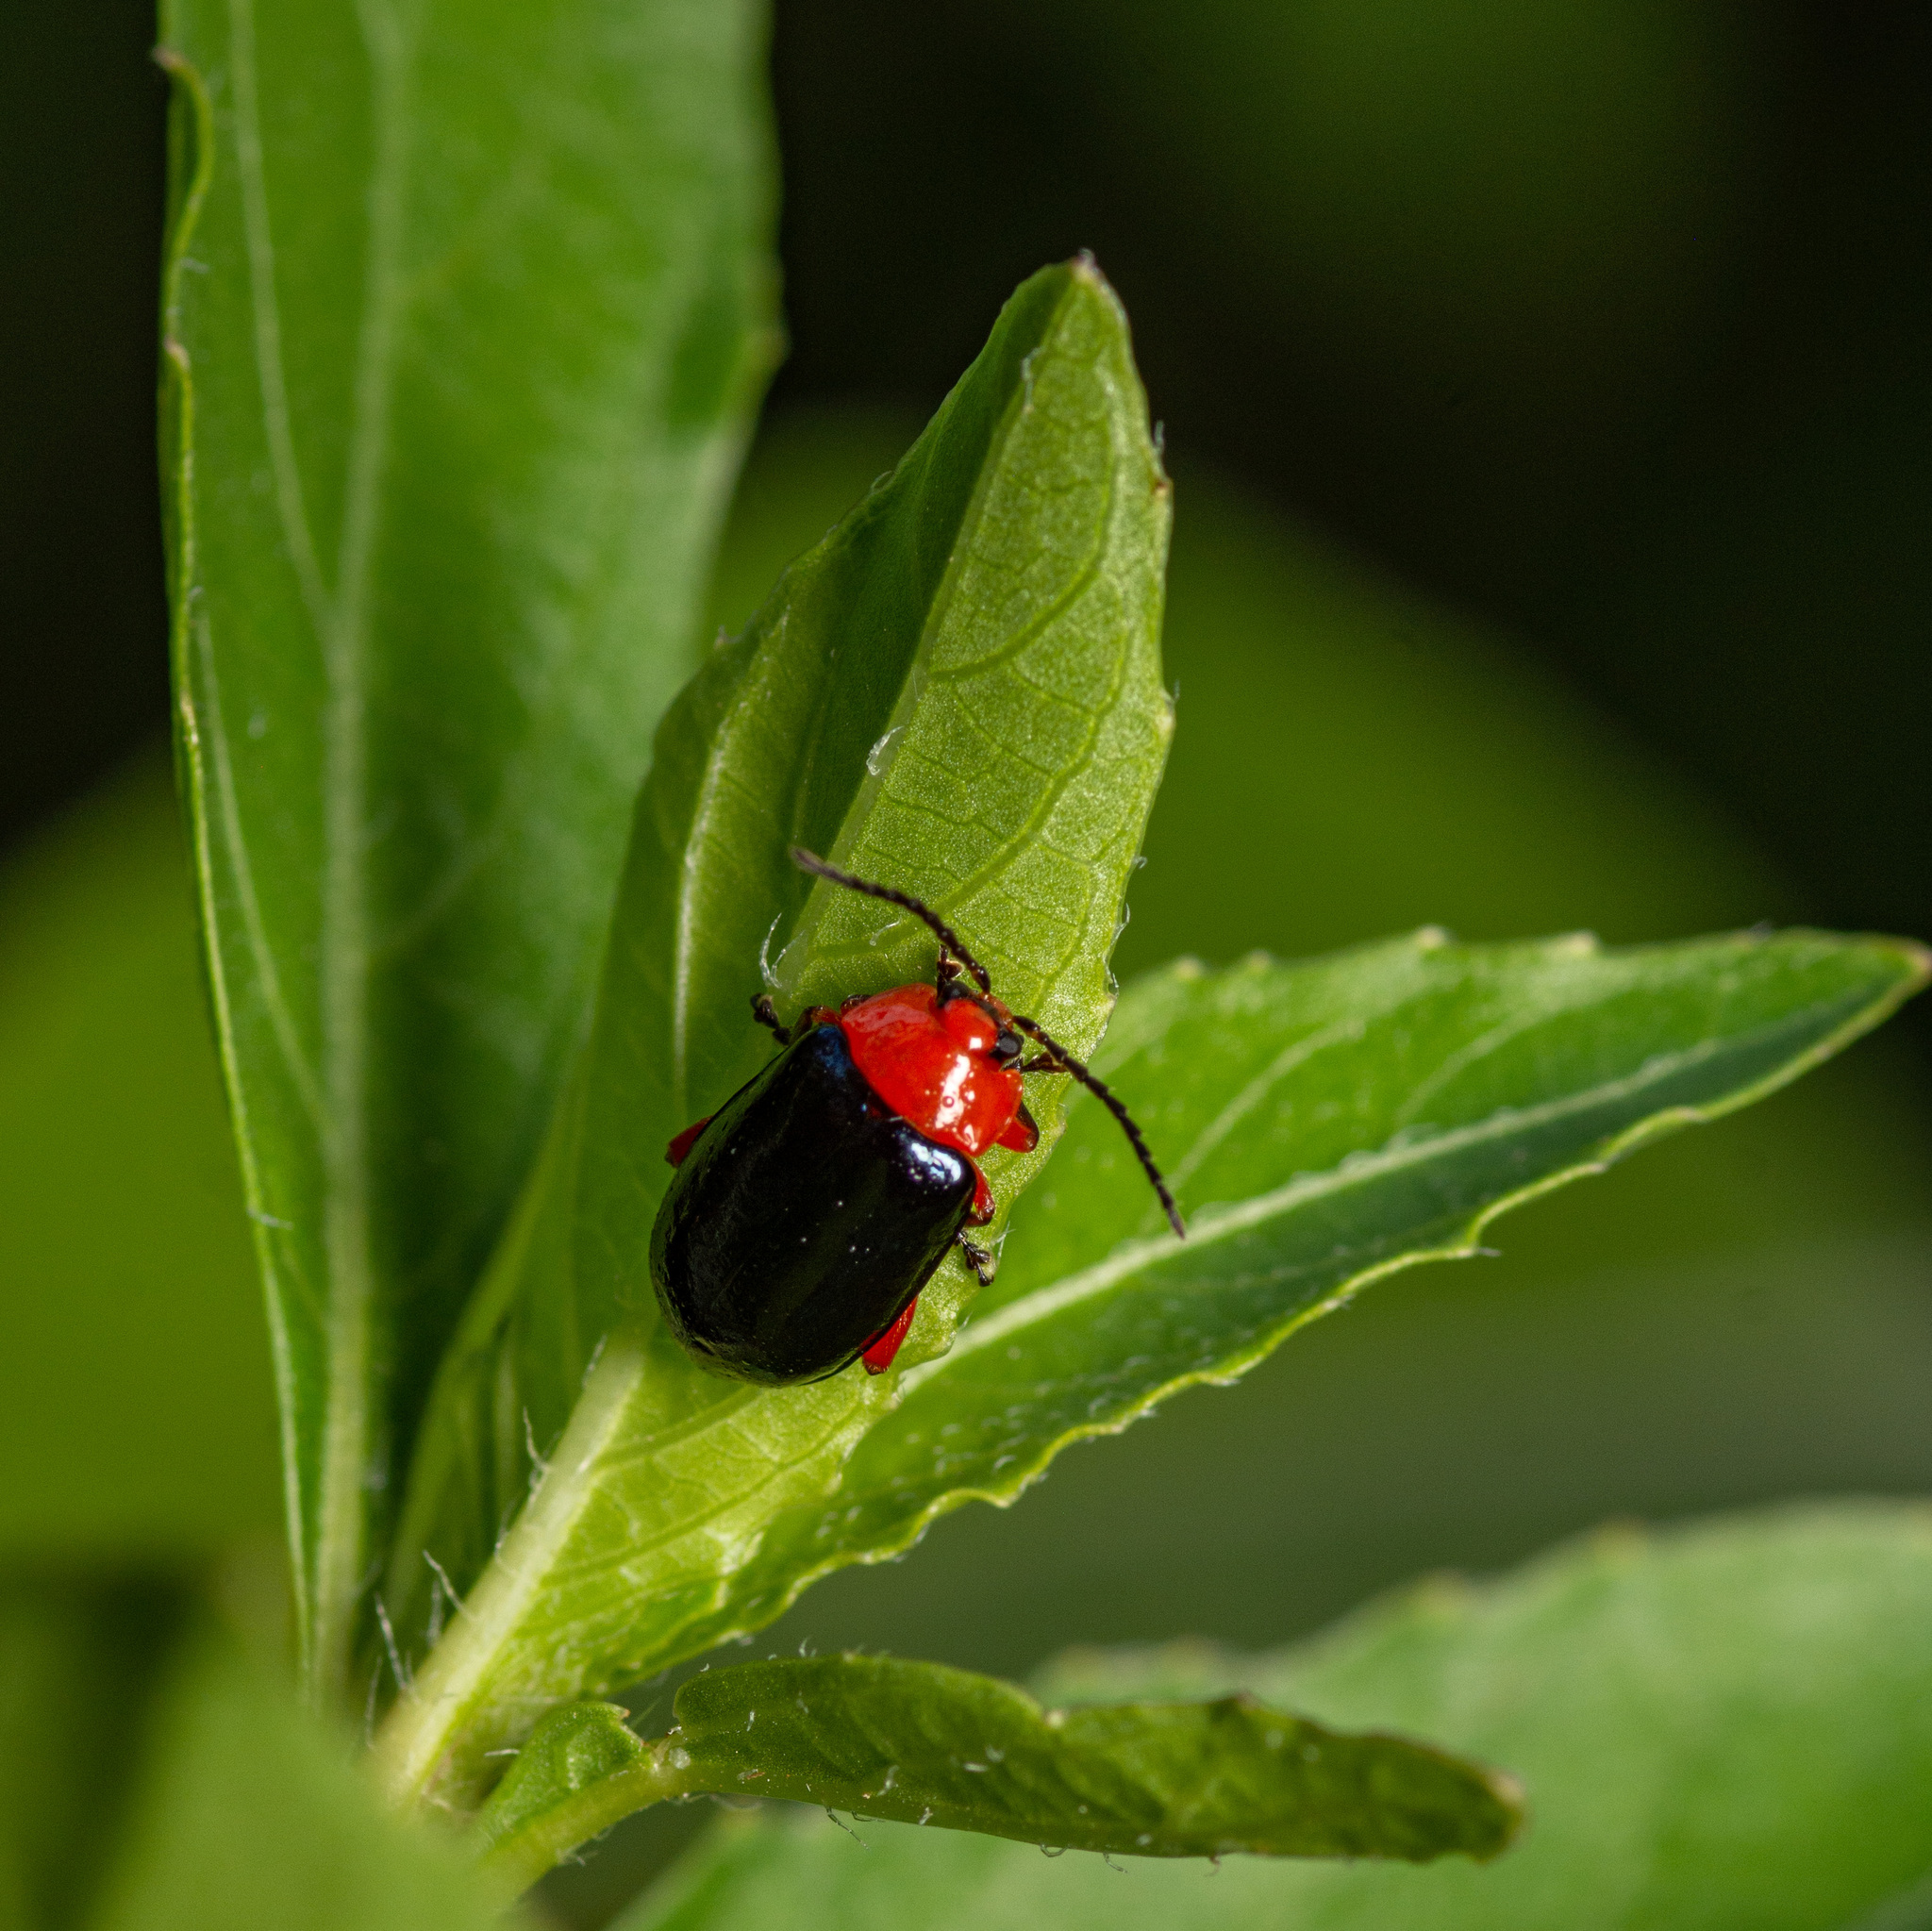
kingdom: Animalia
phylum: Arthropoda
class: Insecta
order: Coleoptera
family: Chrysomelidae
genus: Asphaera
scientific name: Asphaera lustrans
